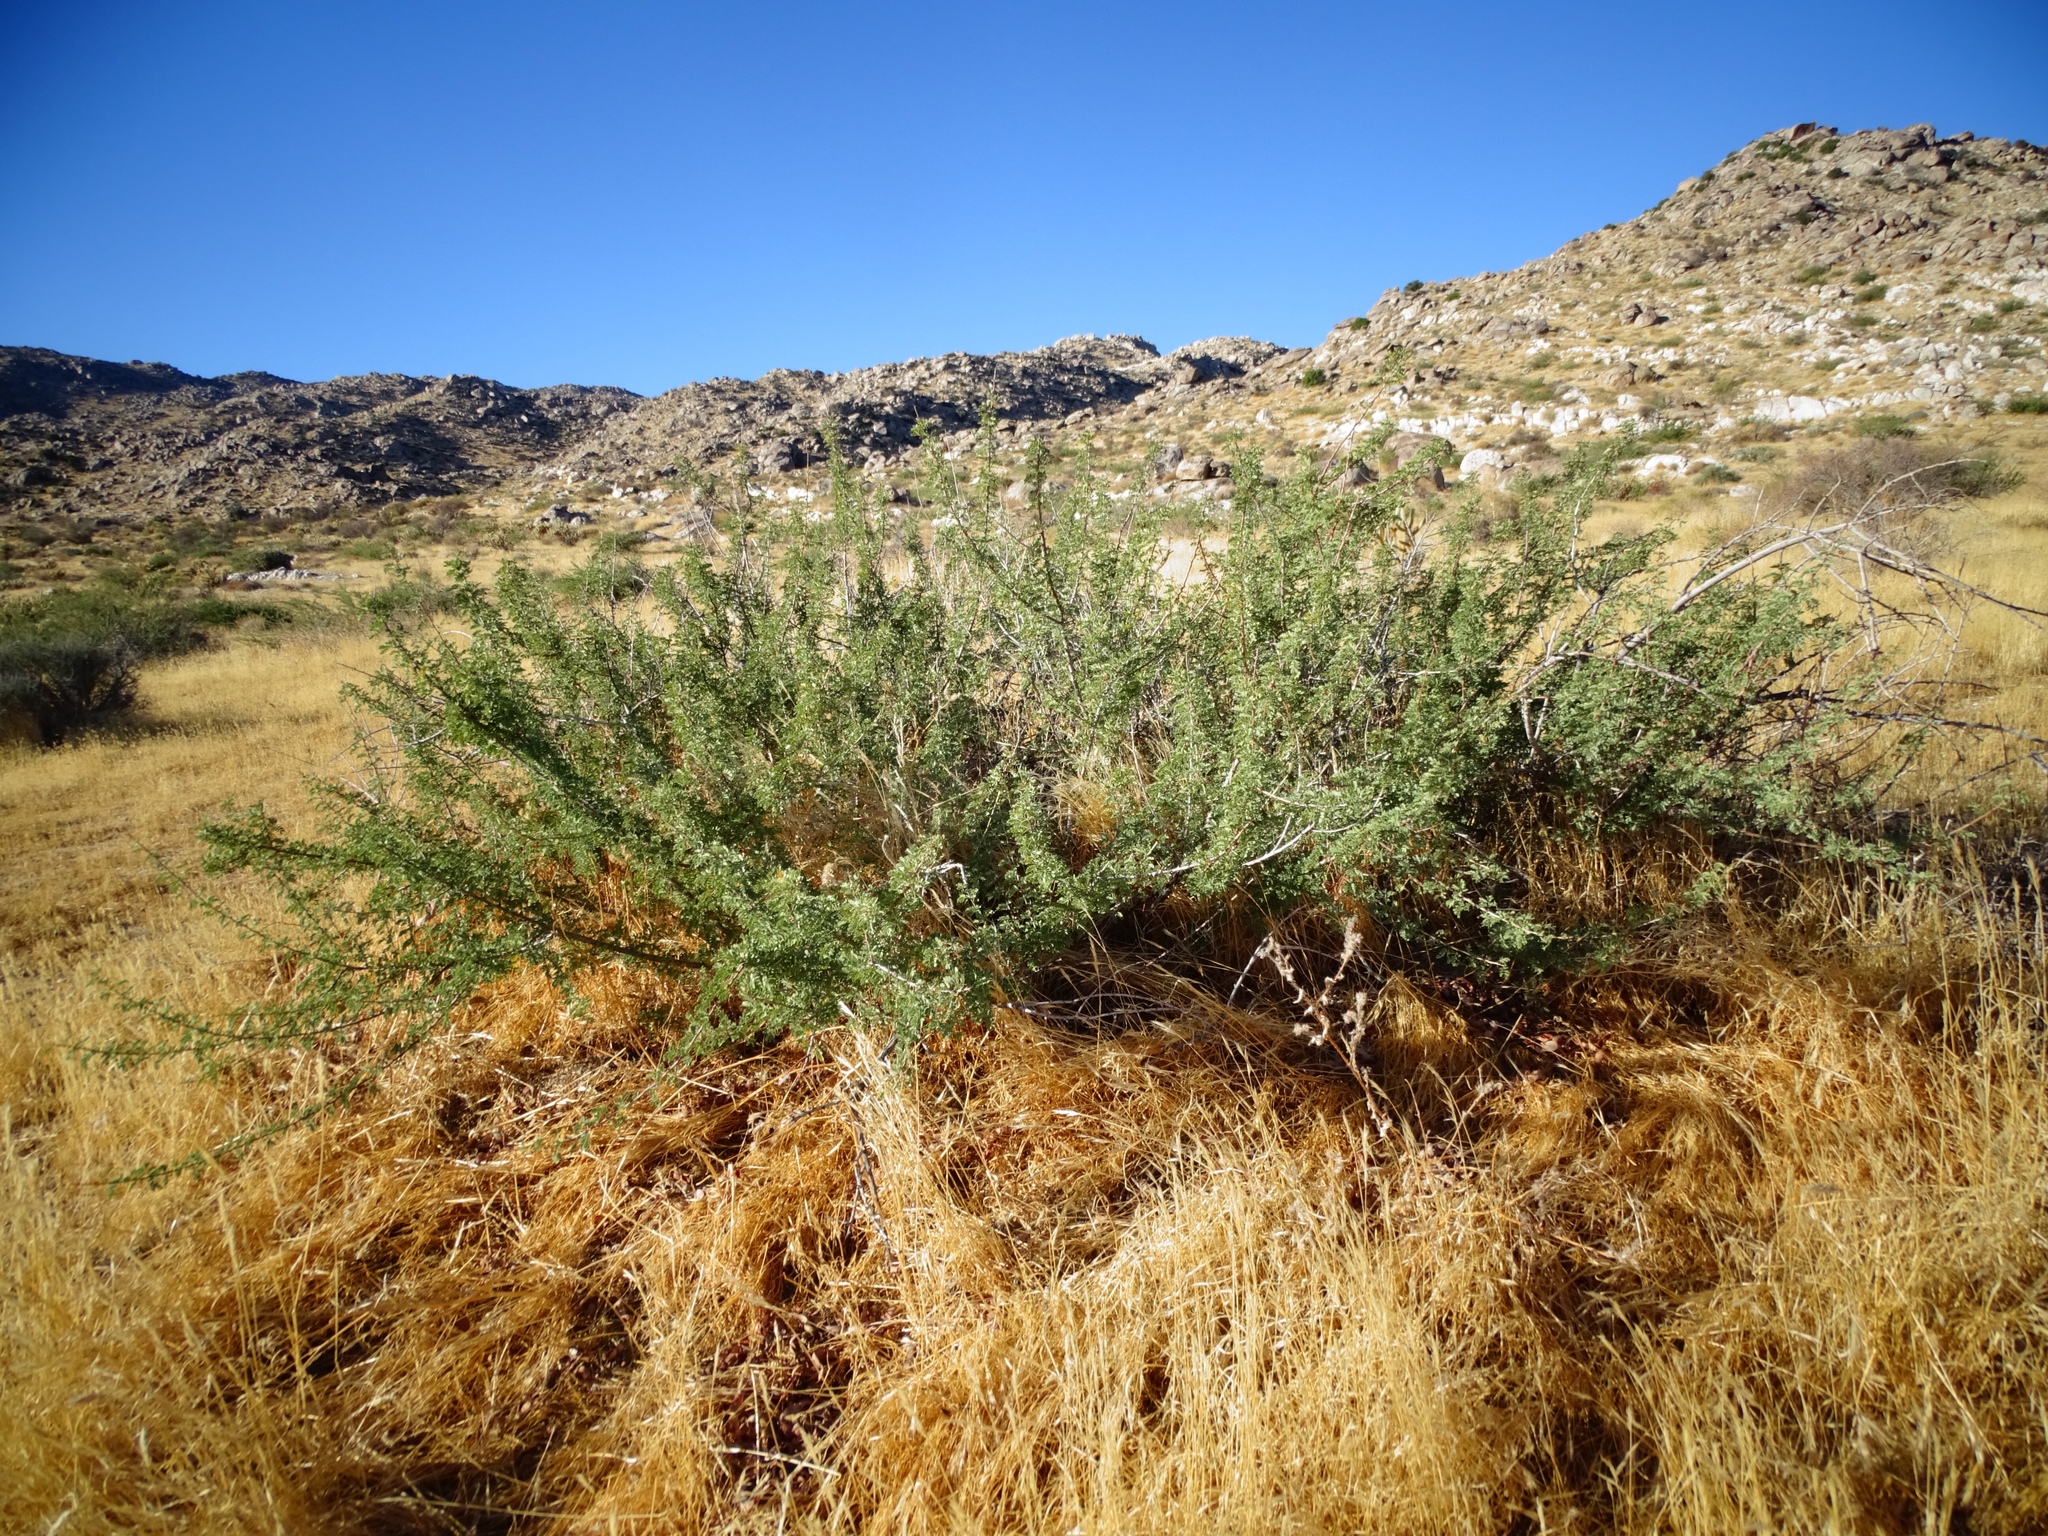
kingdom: Plantae
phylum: Tracheophyta
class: Magnoliopsida
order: Fabales
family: Fabaceae
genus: Senegalia
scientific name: Senegalia greggii
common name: Texas-mimosa
